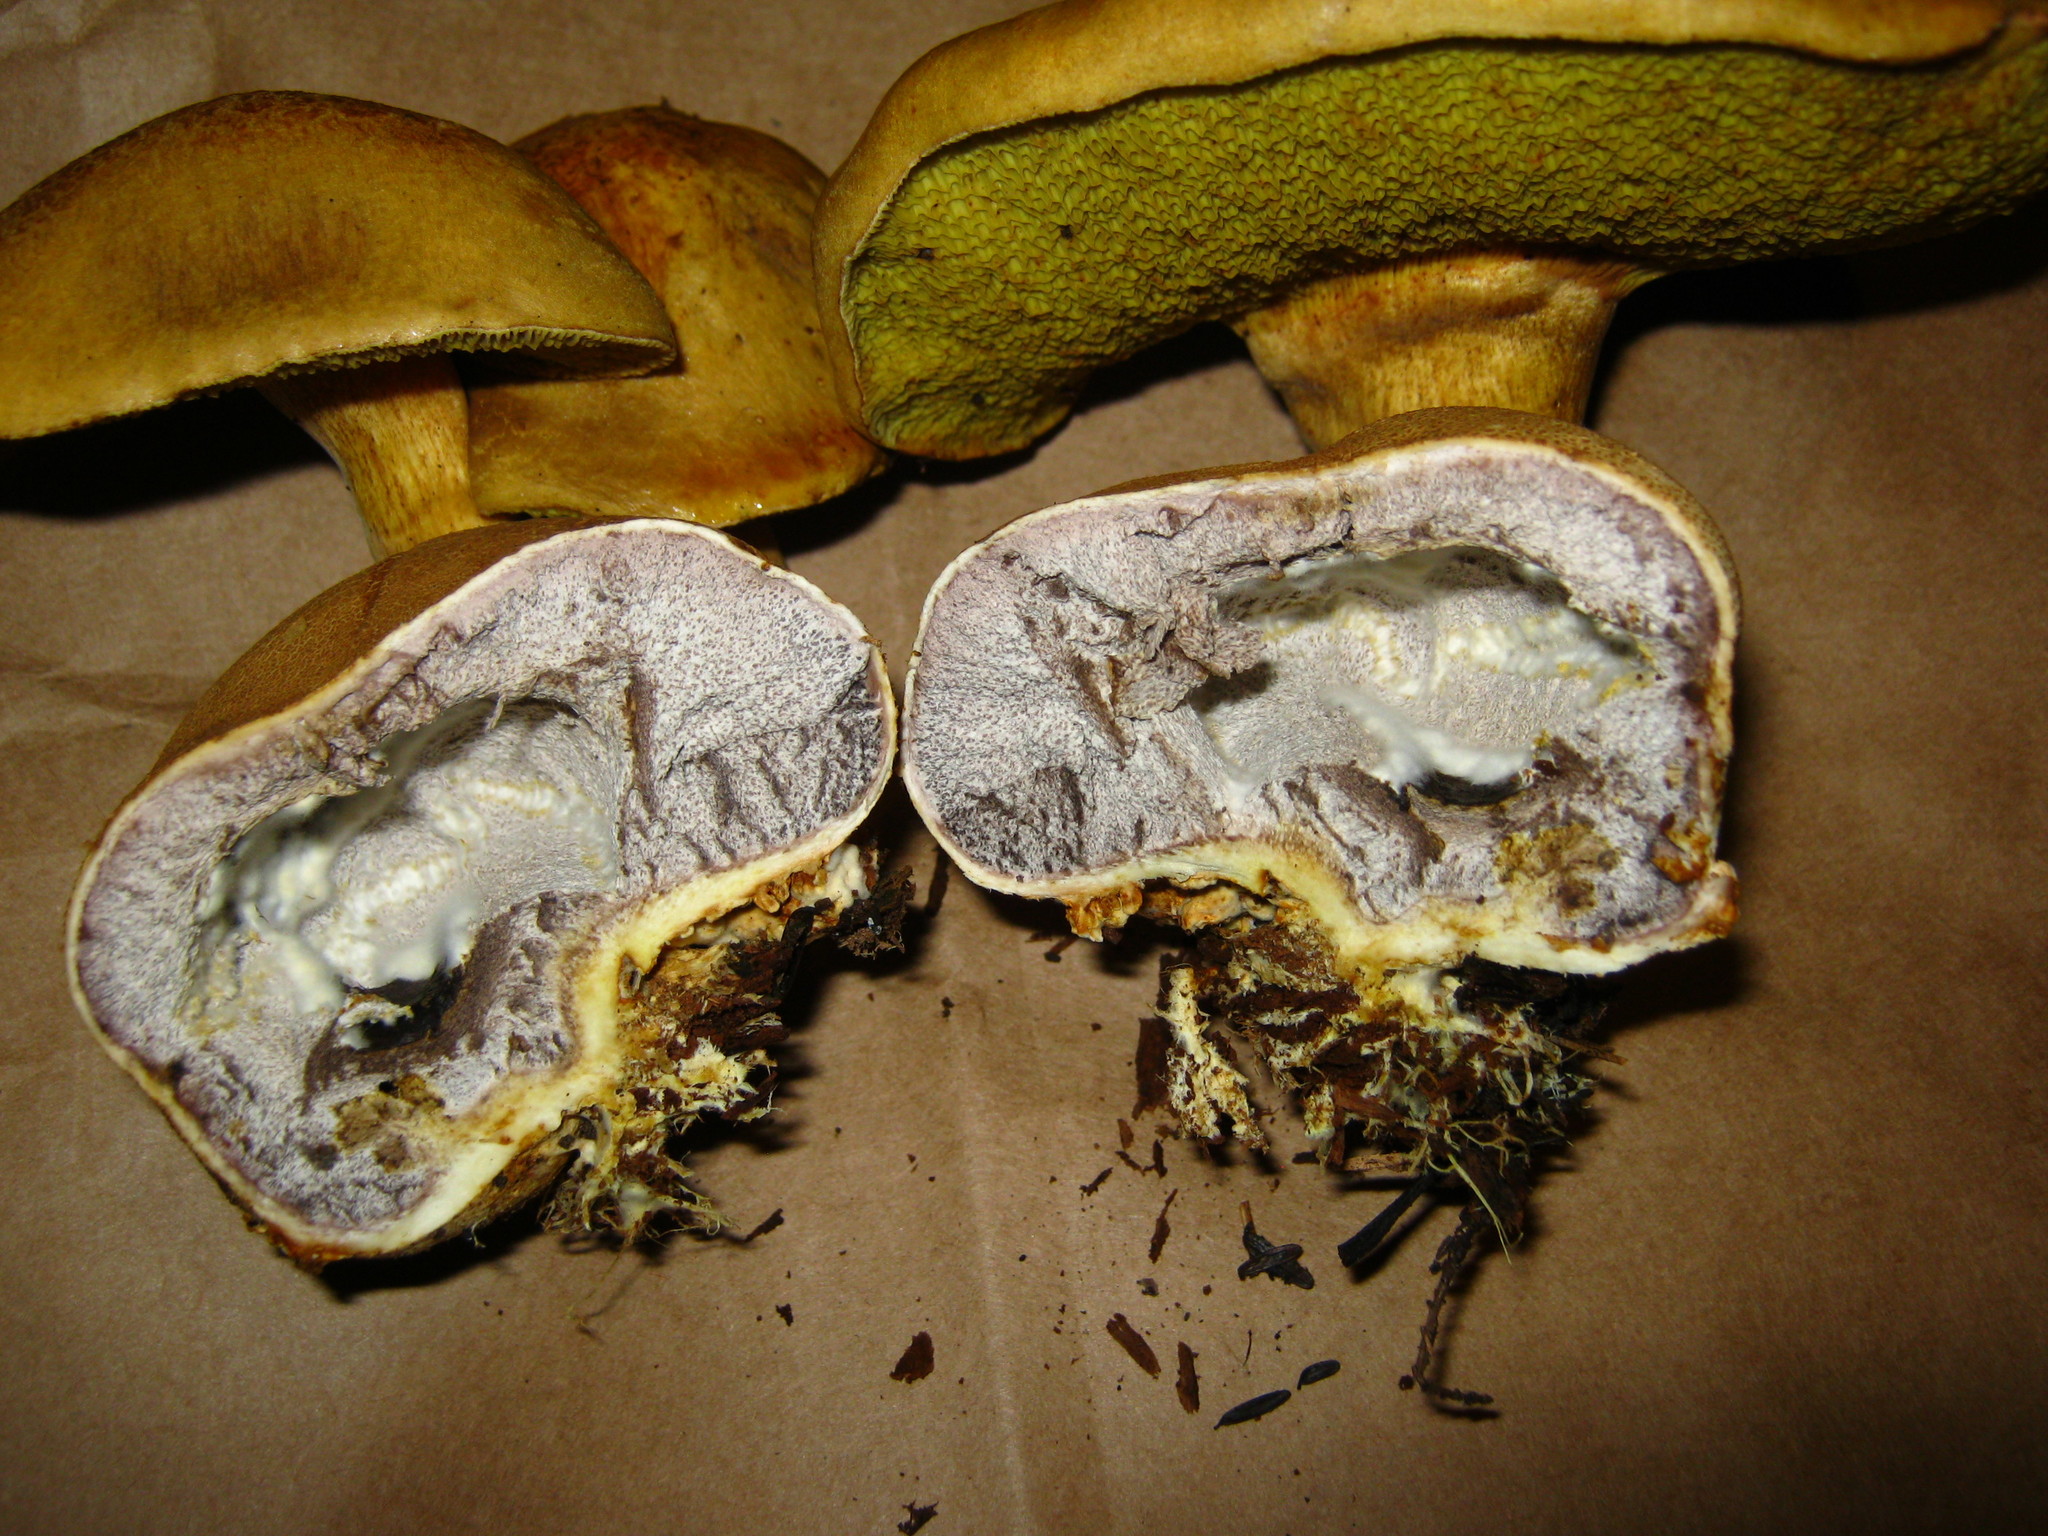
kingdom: Fungi
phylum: Basidiomycota
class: Agaricomycetes
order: Boletales
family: Boletaceae
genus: Pseudoboletus
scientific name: Pseudoboletus parasiticus
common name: Parasitic bolete
